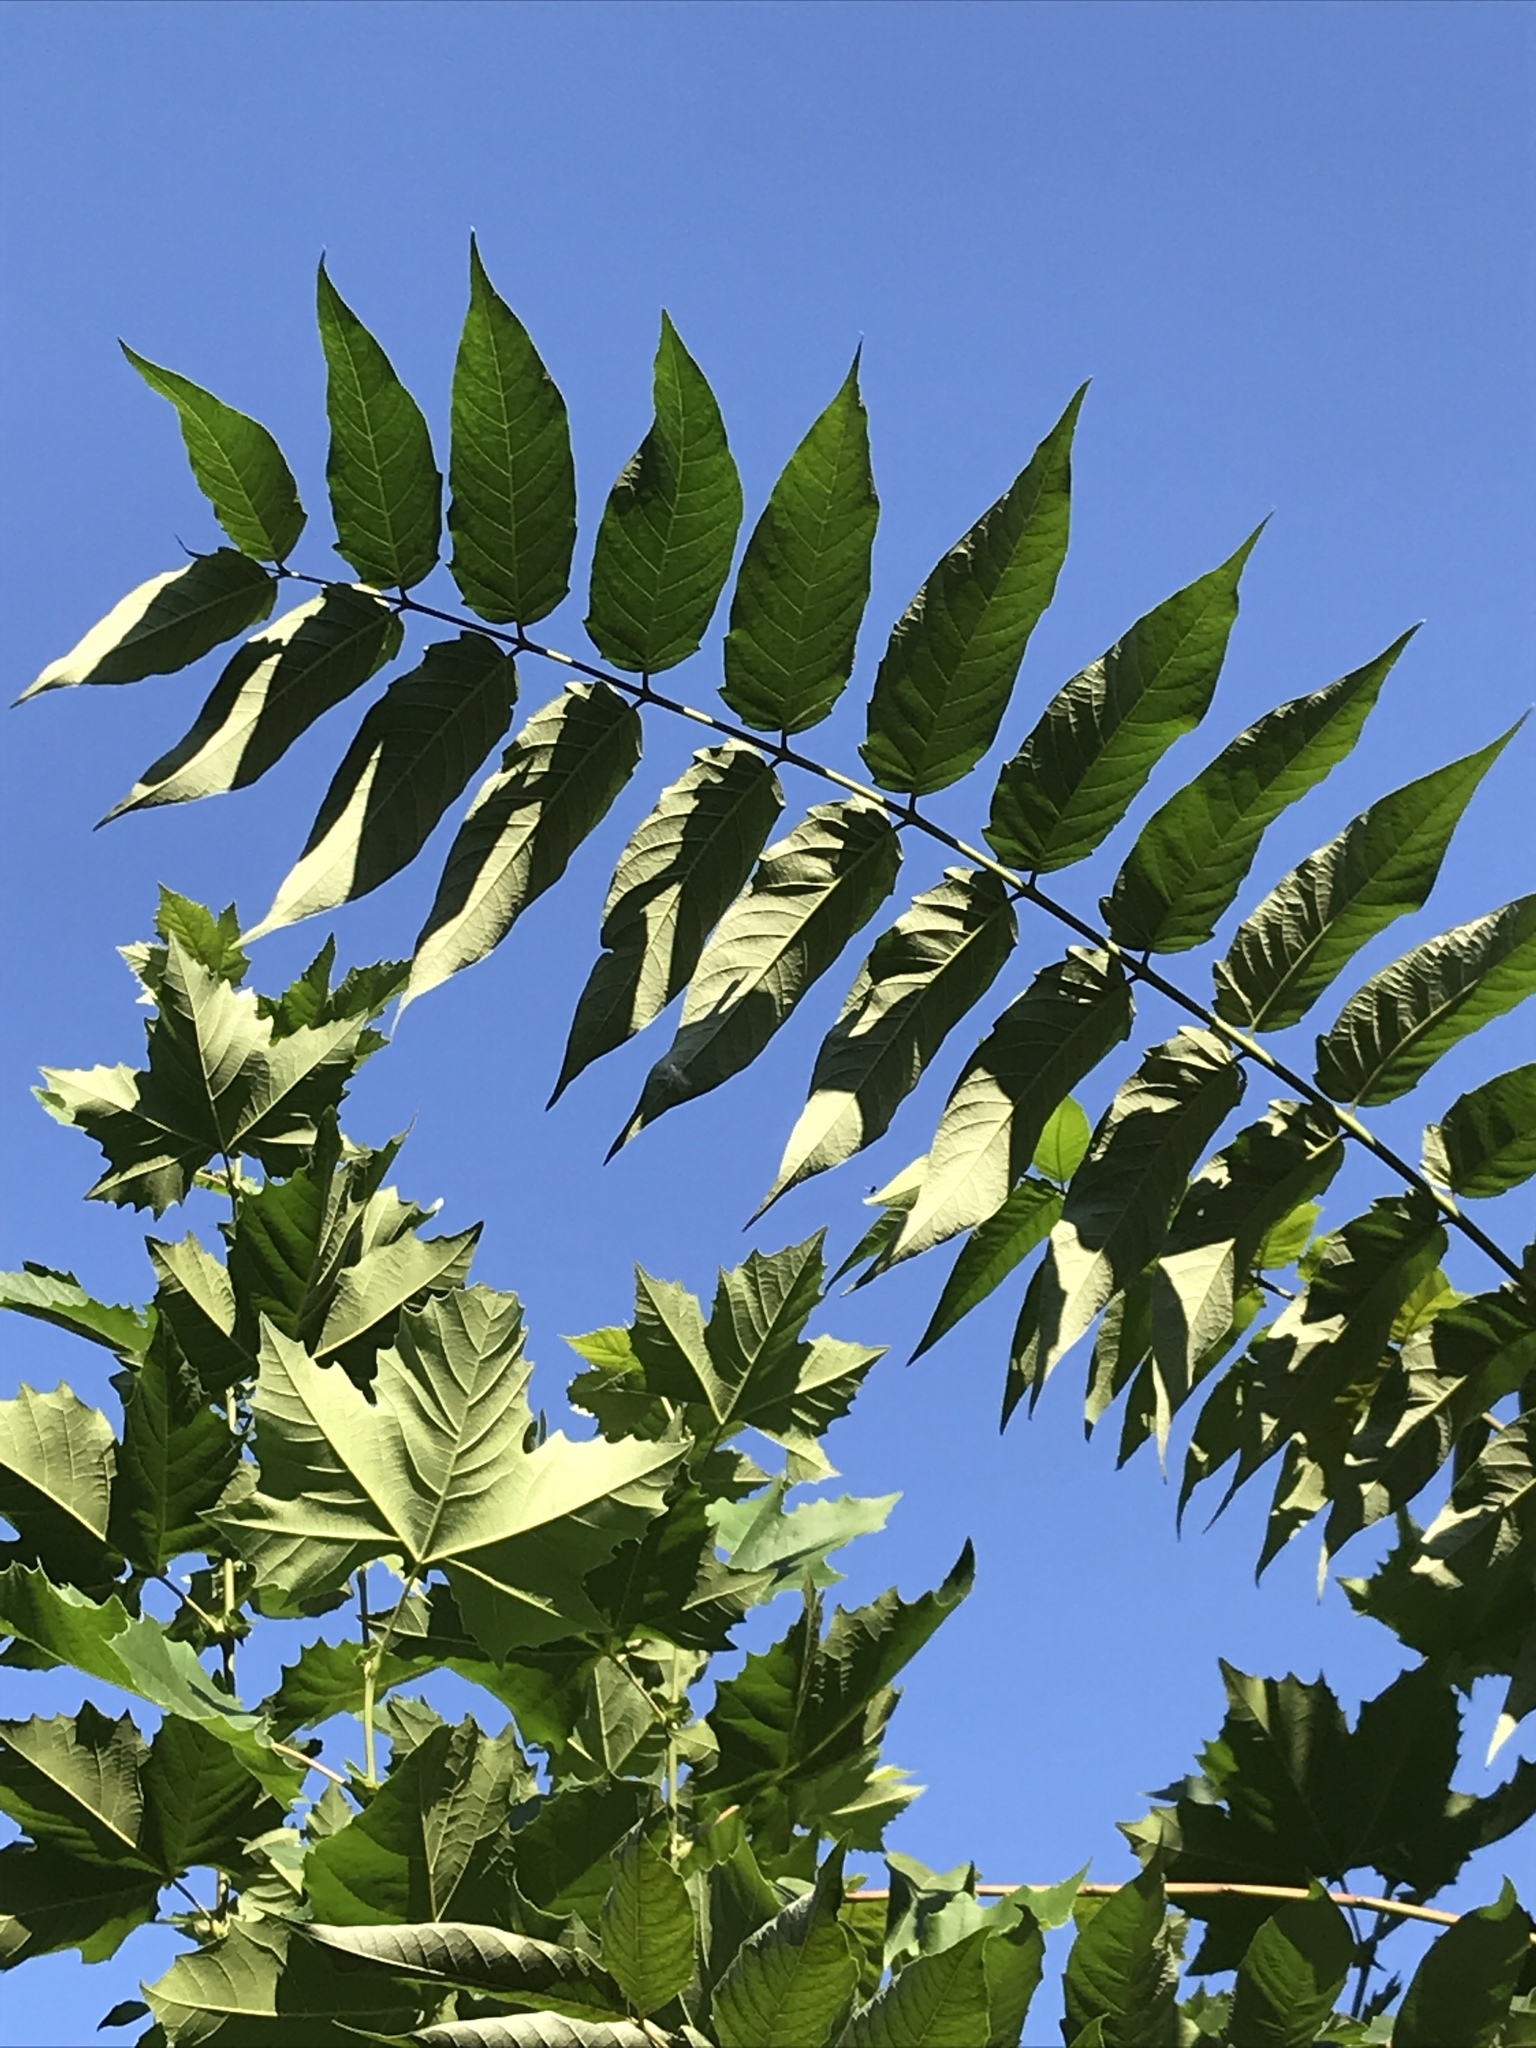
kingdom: Plantae
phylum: Tracheophyta
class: Magnoliopsida
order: Sapindales
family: Simaroubaceae
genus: Ailanthus
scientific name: Ailanthus altissima
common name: Tree-of-heaven
